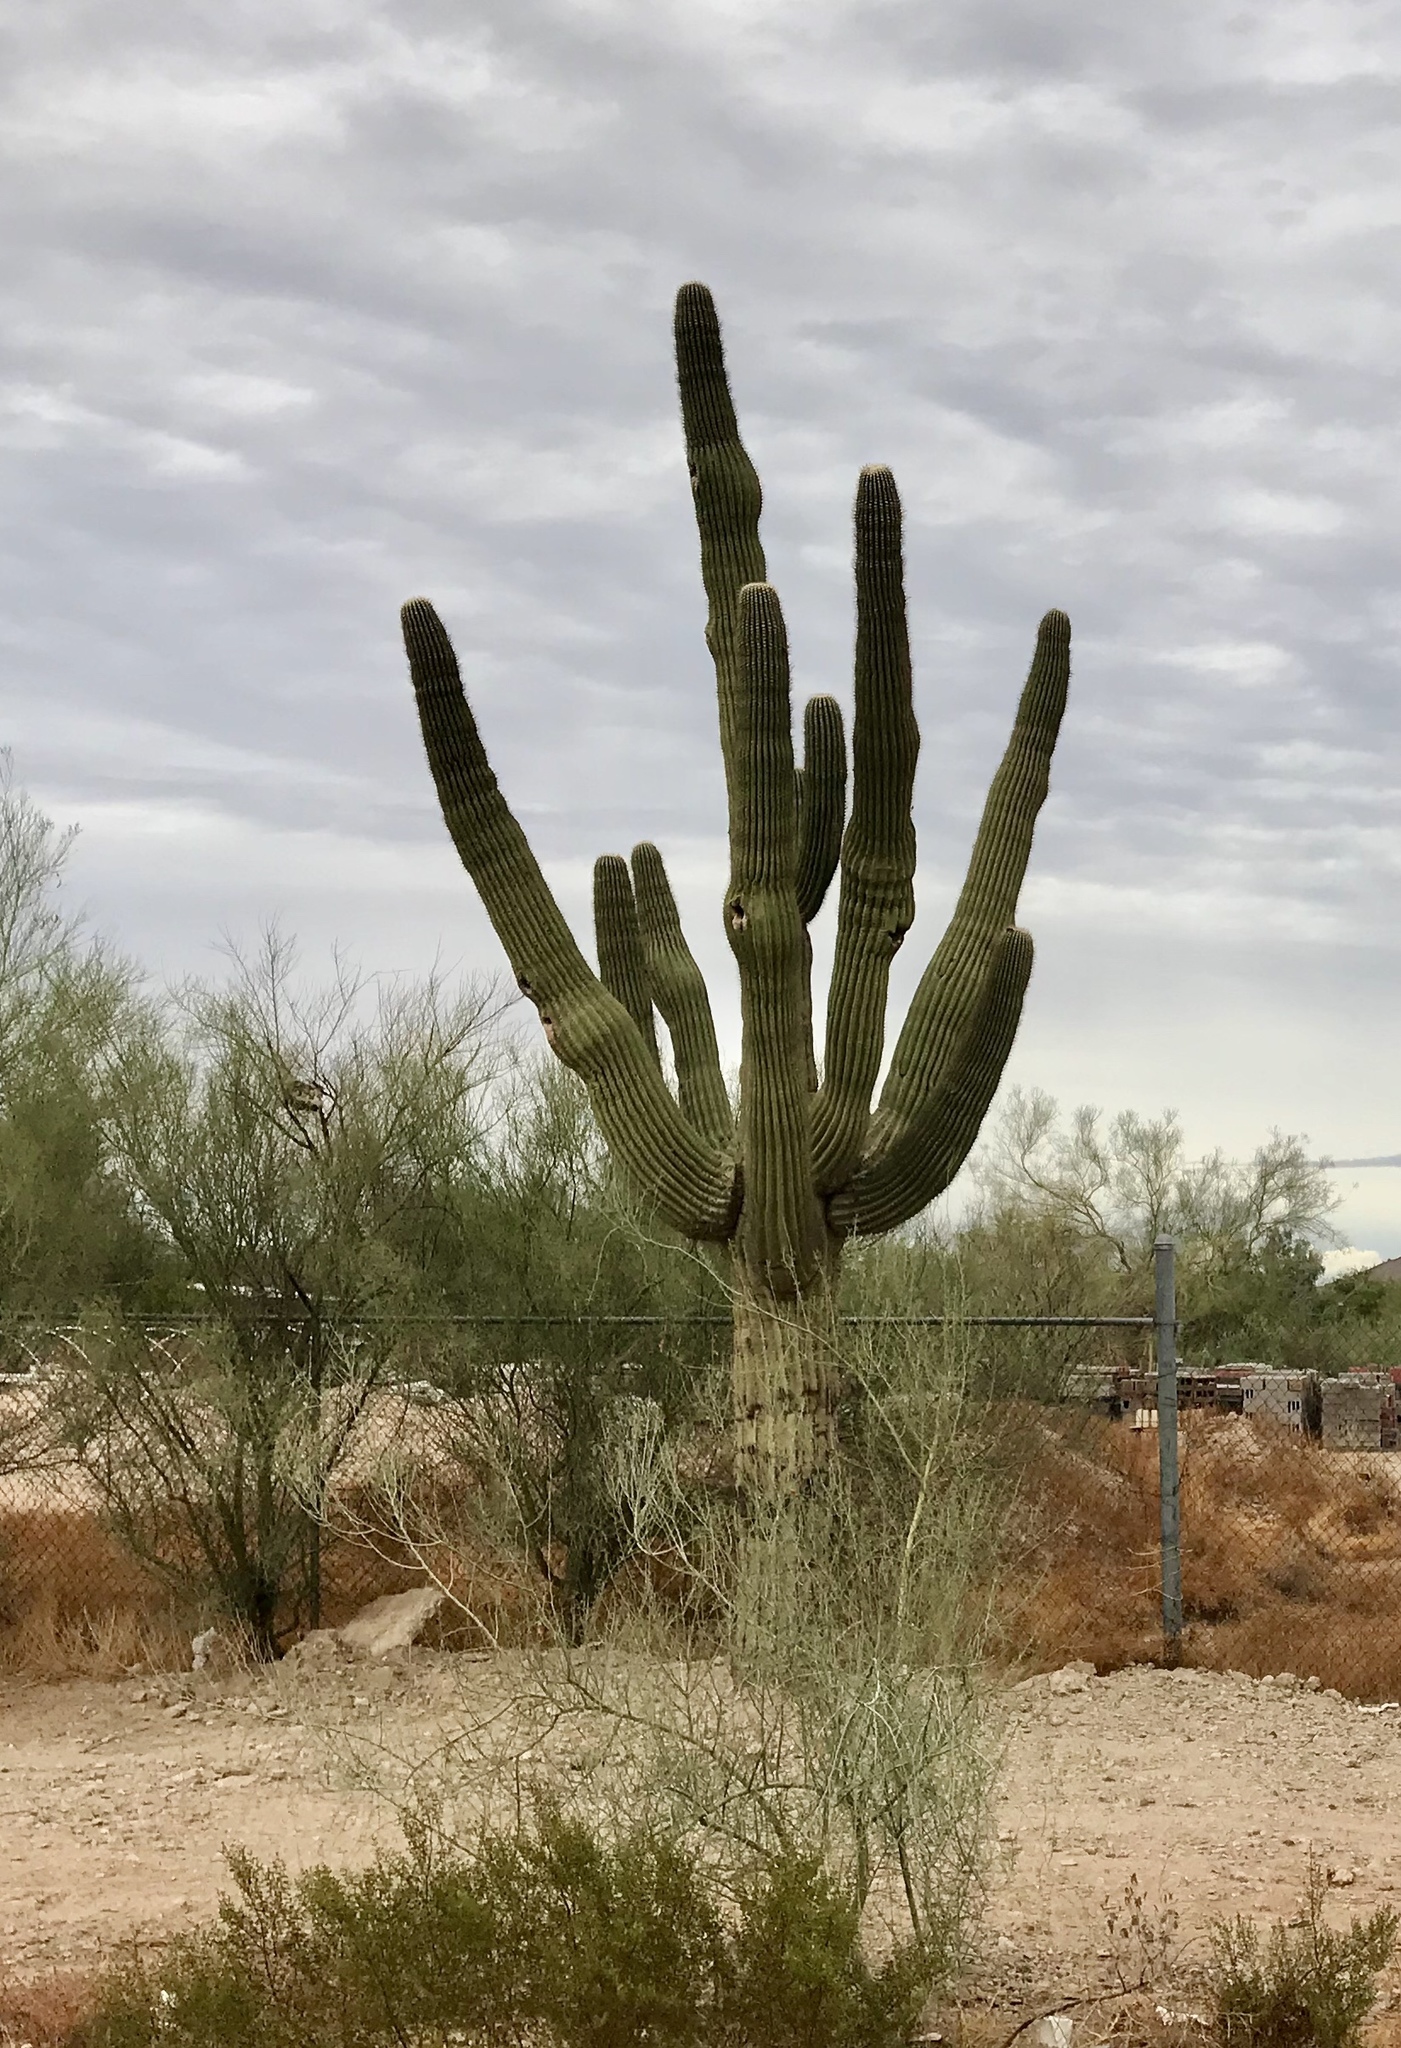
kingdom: Plantae
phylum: Tracheophyta
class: Magnoliopsida
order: Caryophyllales
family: Cactaceae
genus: Carnegiea
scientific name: Carnegiea gigantea
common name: Saguaro
